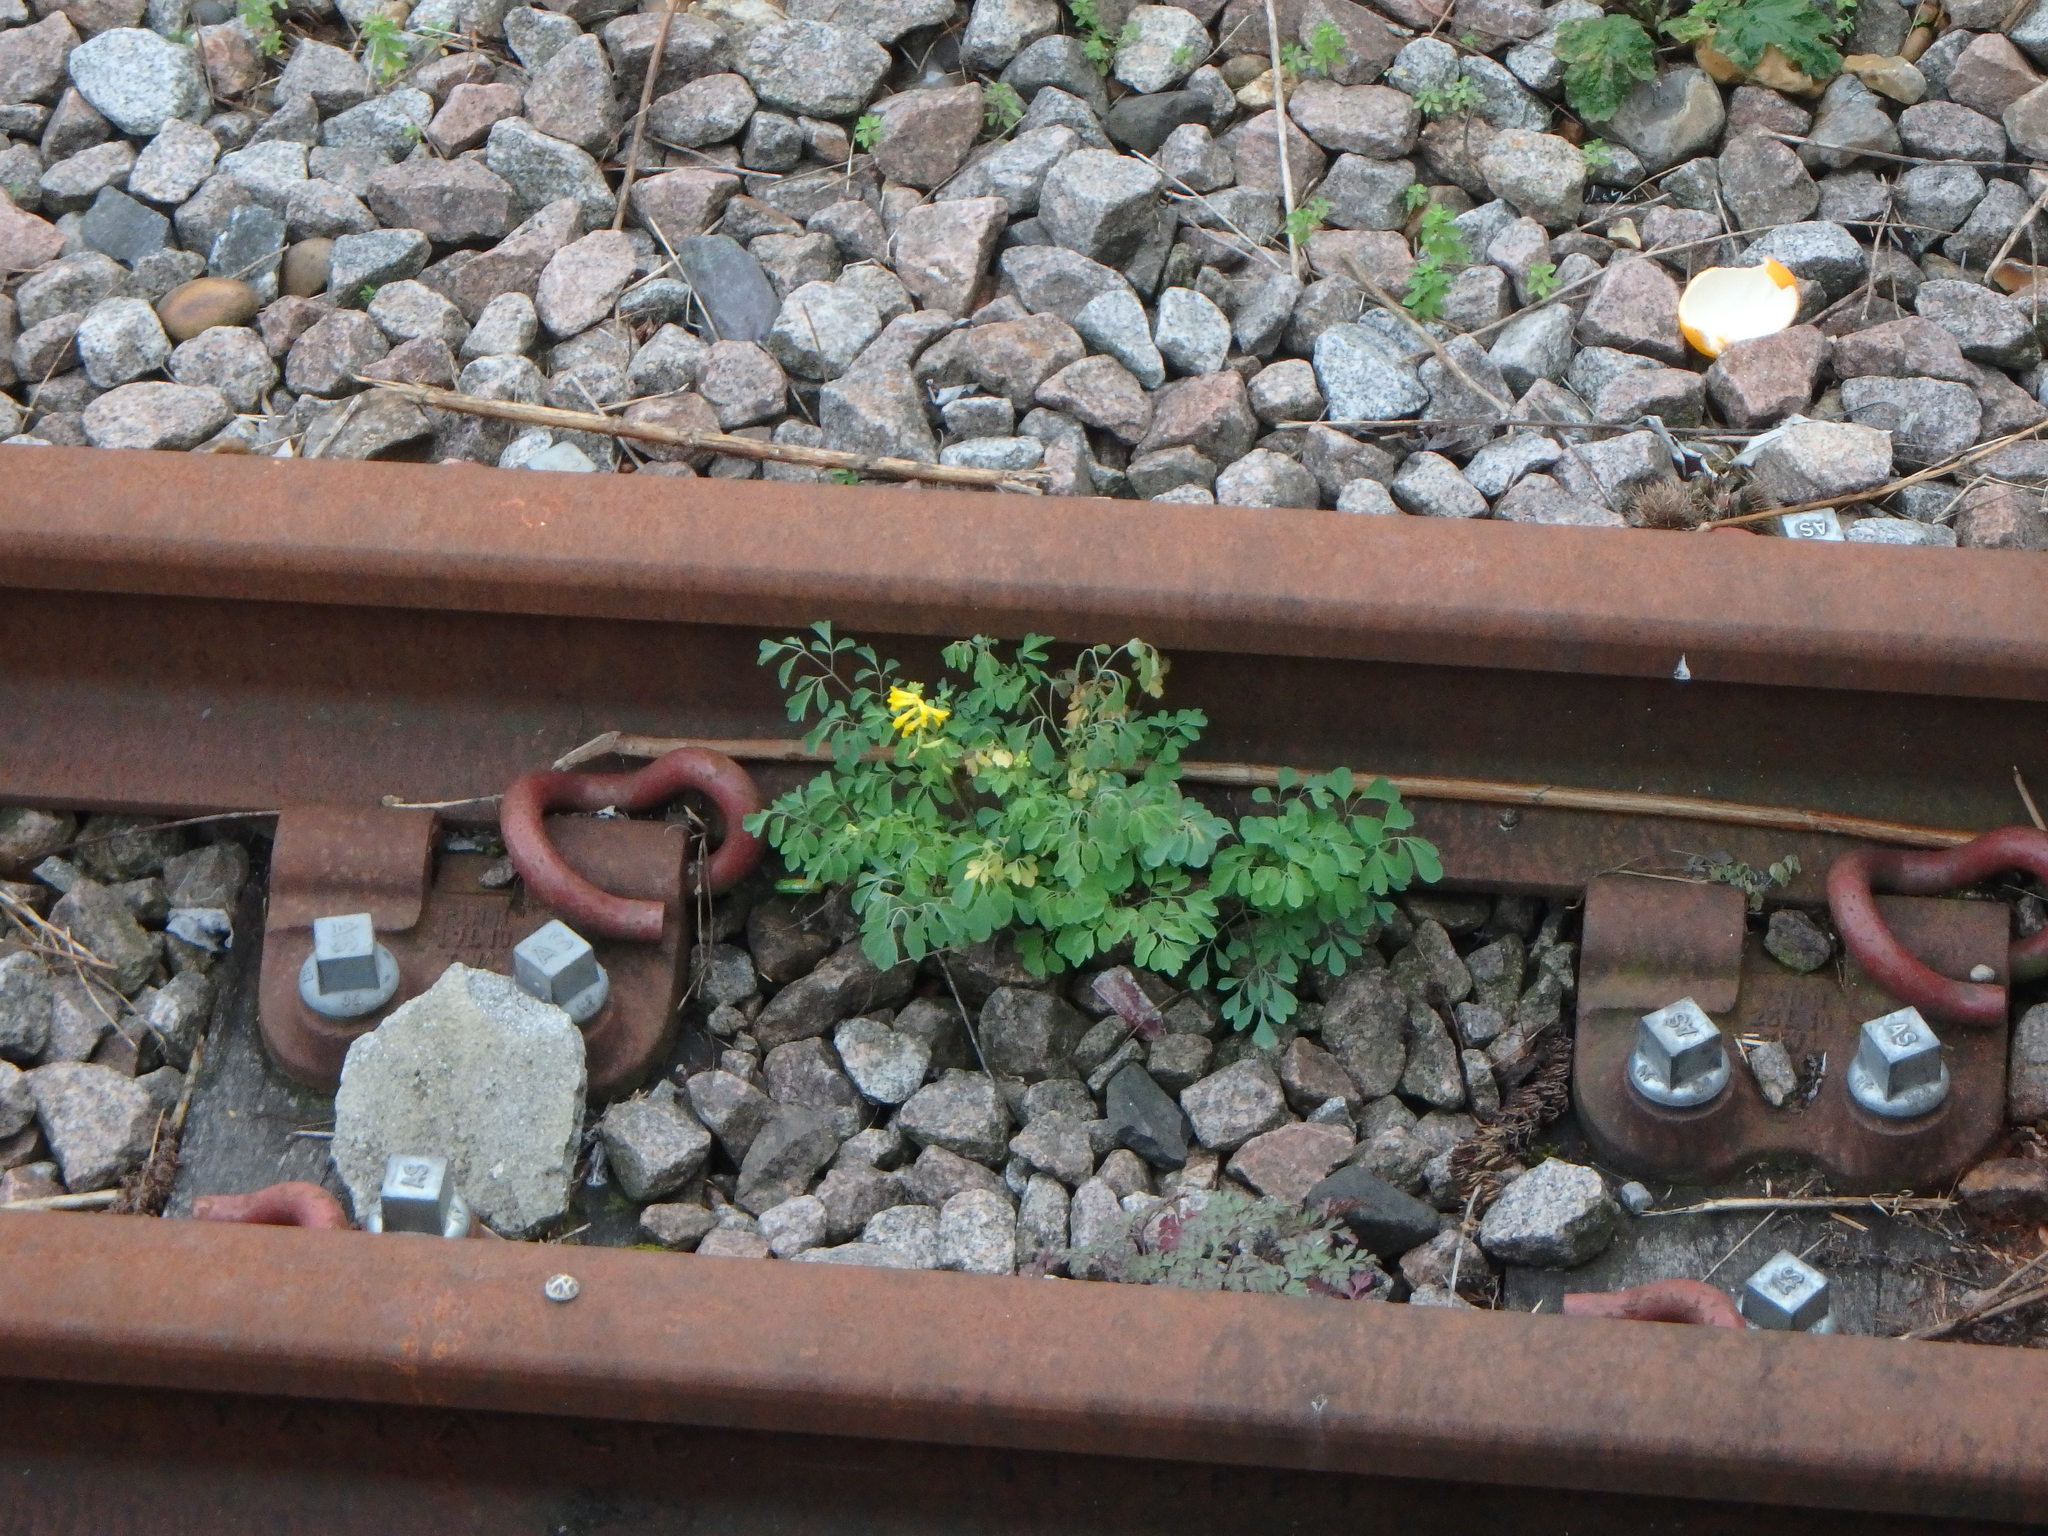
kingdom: Plantae
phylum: Tracheophyta
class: Magnoliopsida
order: Ranunculales
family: Papaveraceae
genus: Pseudofumaria
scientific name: Pseudofumaria lutea
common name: Yellow corydalis
